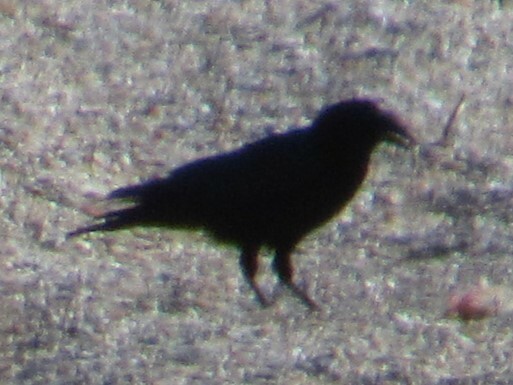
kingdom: Animalia
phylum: Chordata
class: Aves
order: Passeriformes
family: Corvidae
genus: Corvus
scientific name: Corvus brachyrhynchos
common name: American crow
